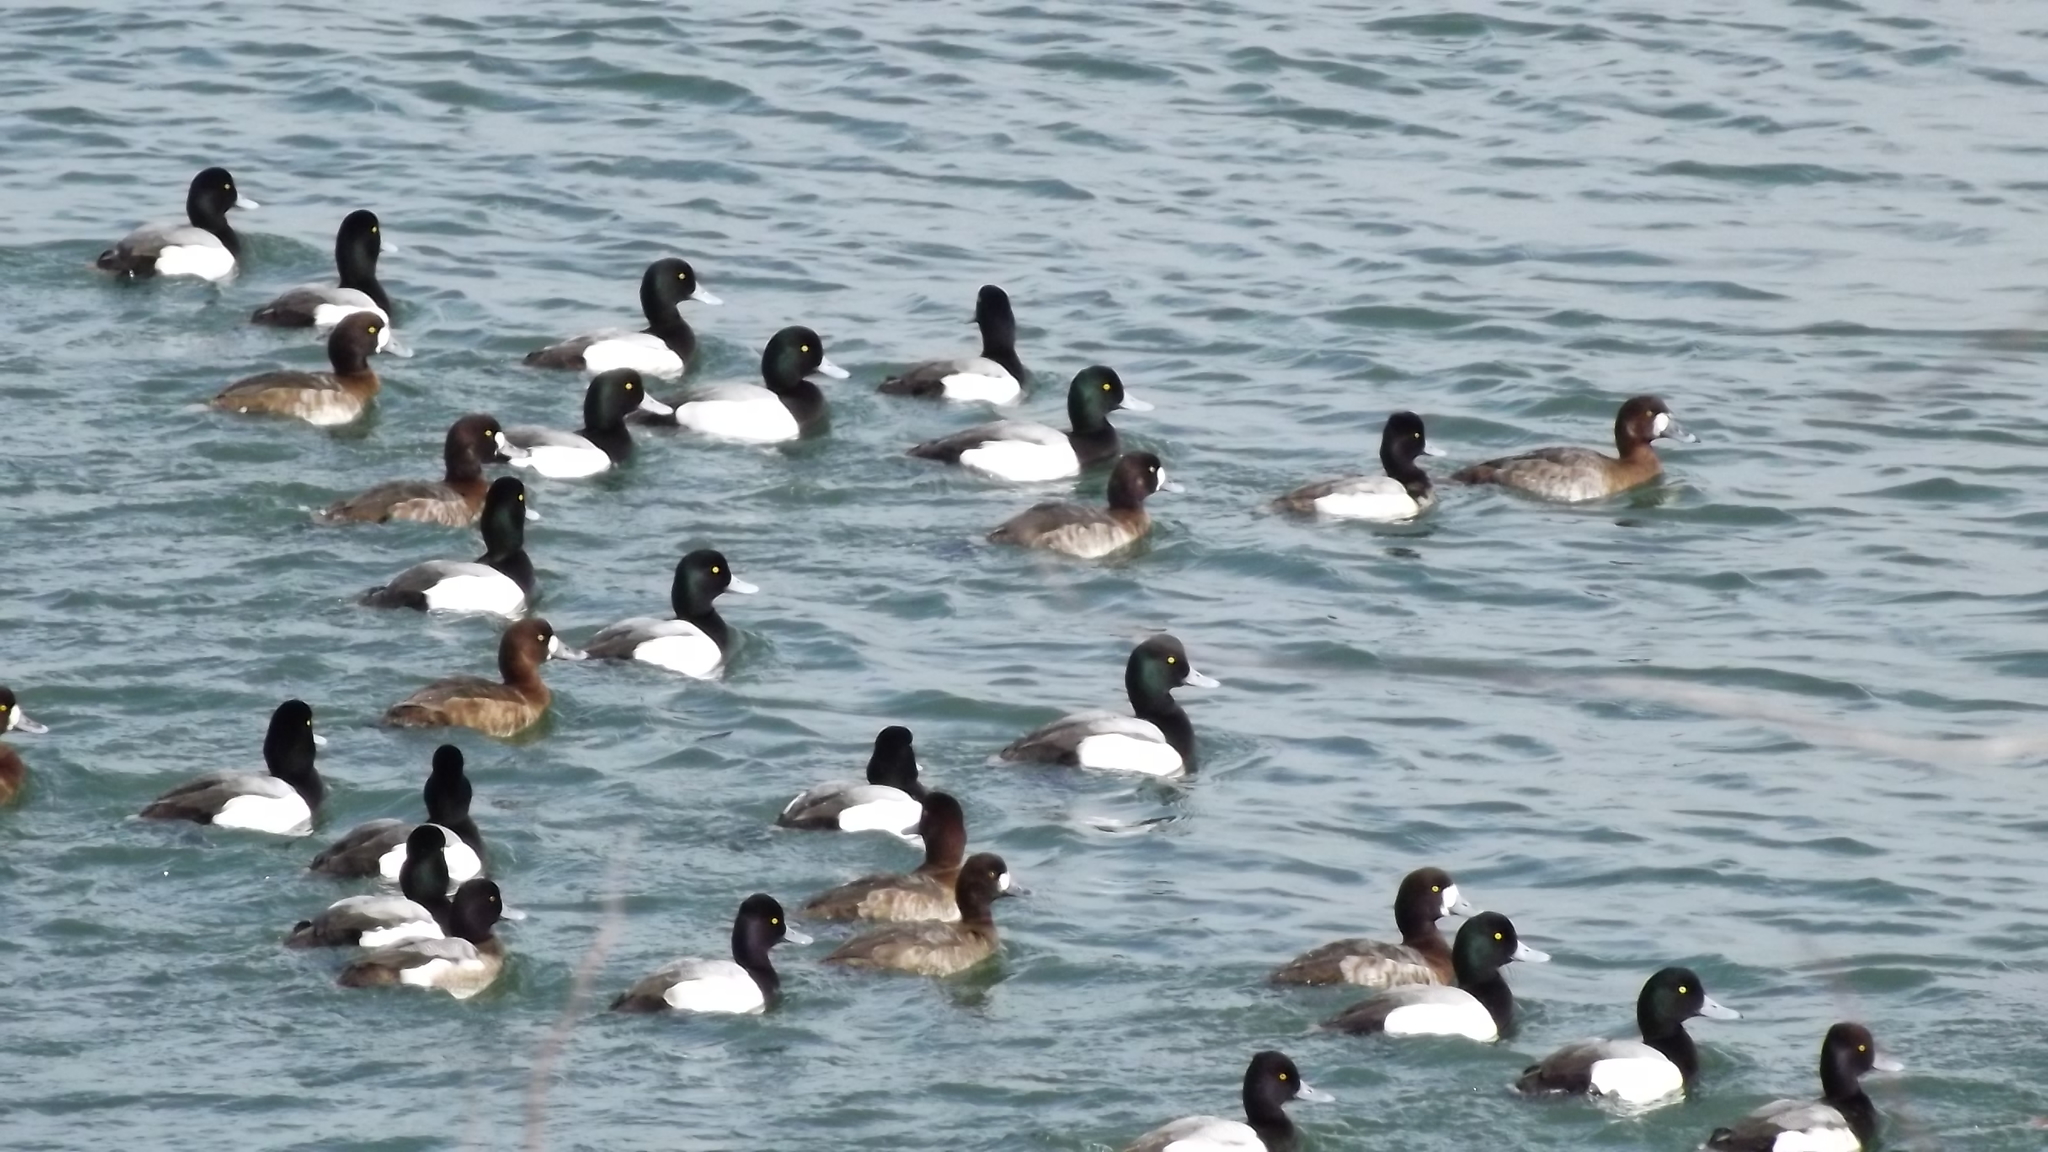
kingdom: Animalia
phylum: Chordata
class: Aves
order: Anseriformes
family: Anatidae
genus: Aythya
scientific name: Aythya marila
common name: Greater scaup
